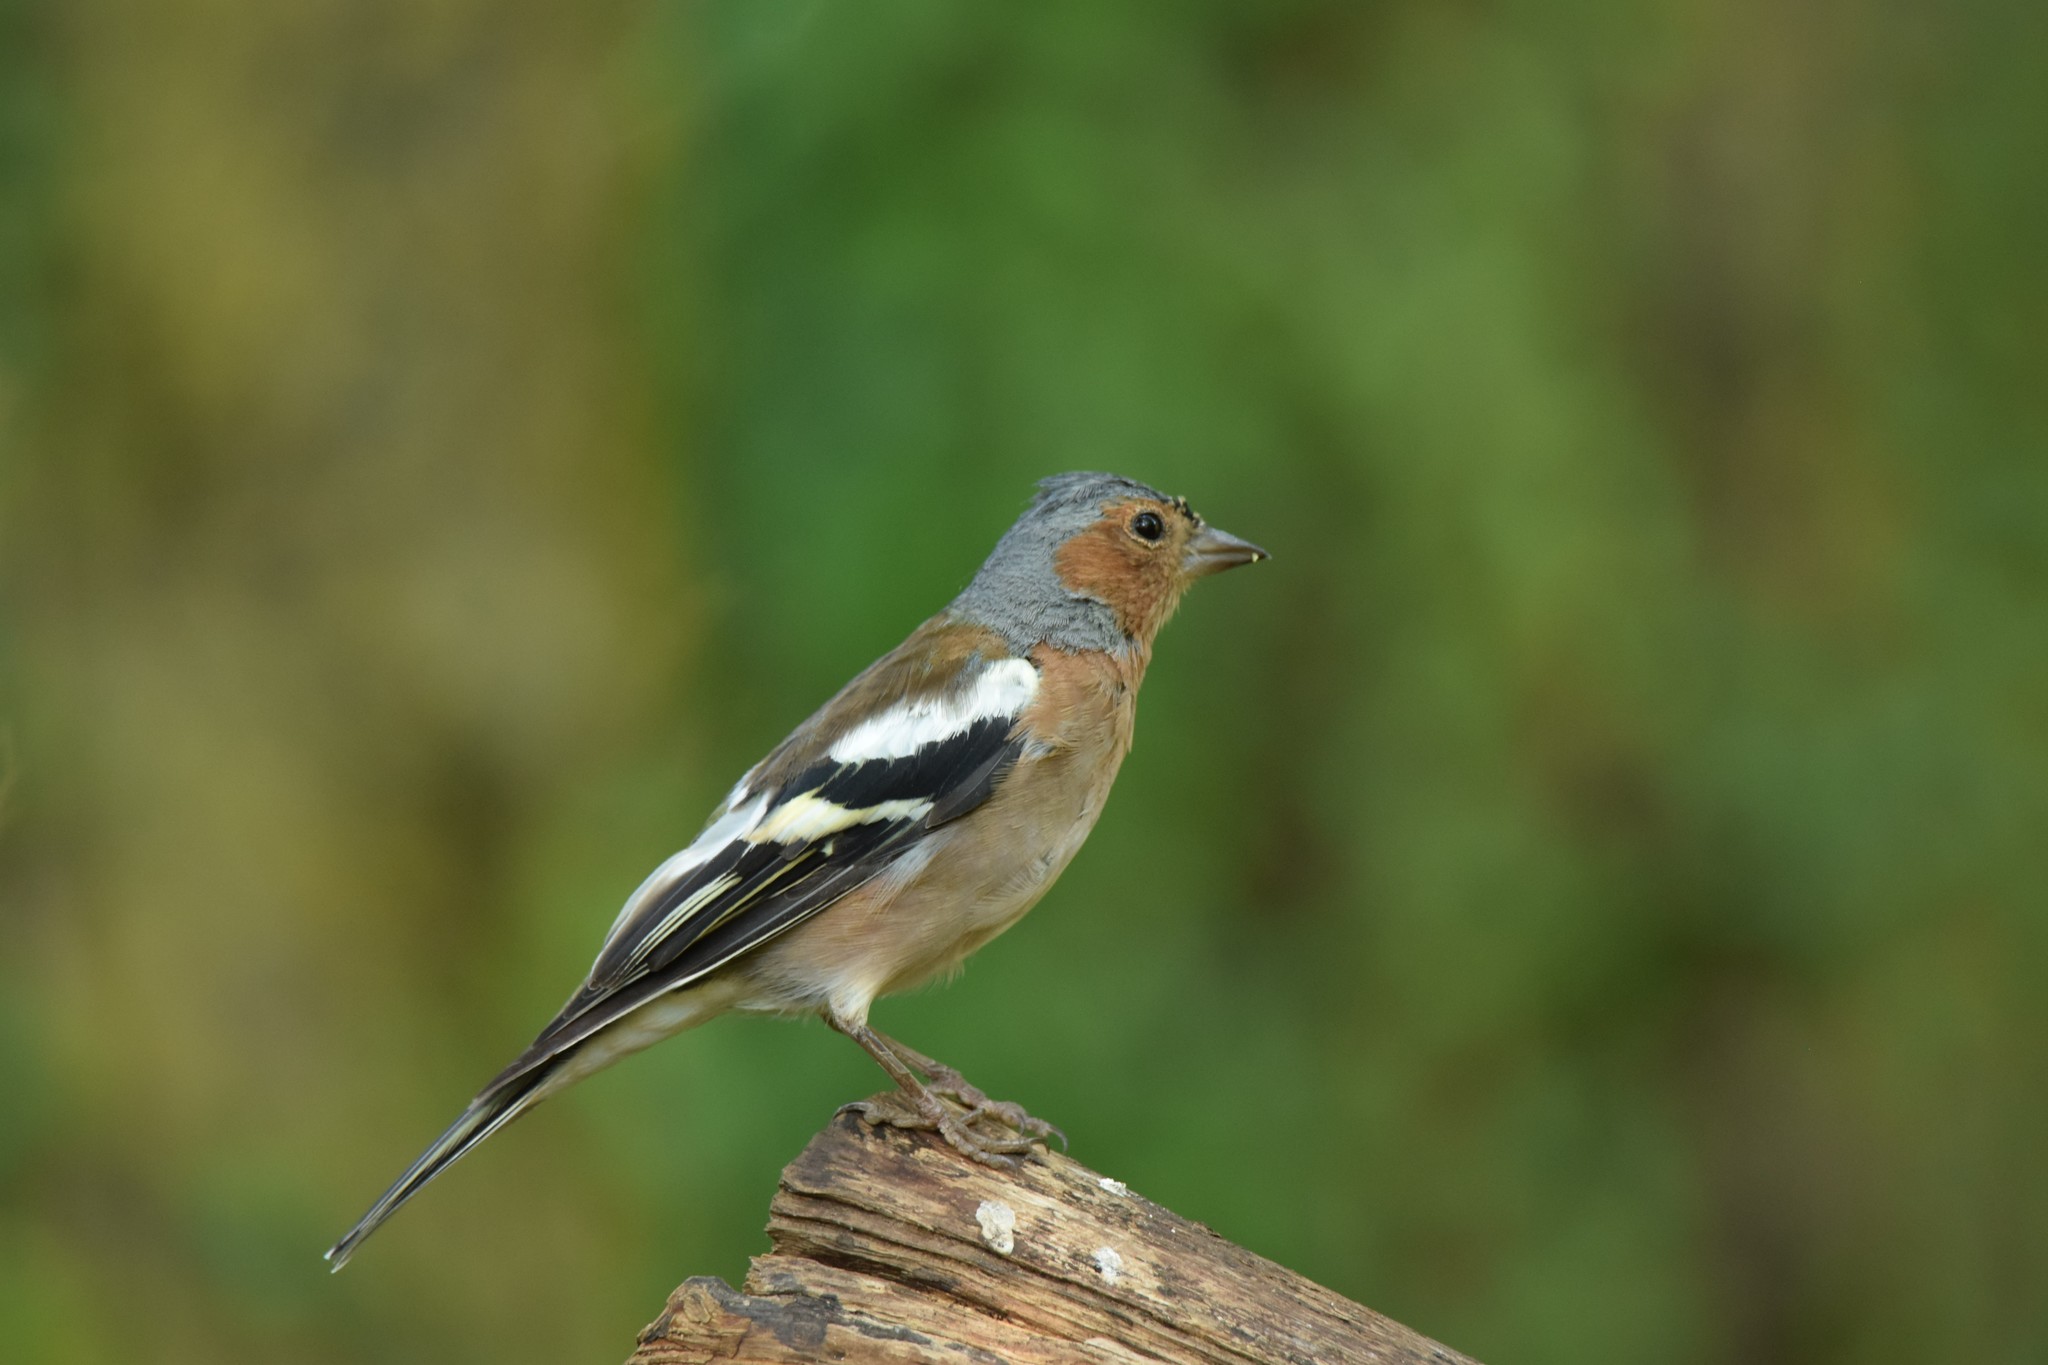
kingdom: Animalia
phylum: Chordata
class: Aves
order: Passeriformes
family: Fringillidae
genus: Fringilla
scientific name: Fringilla coelebs
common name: Common chaffinch
